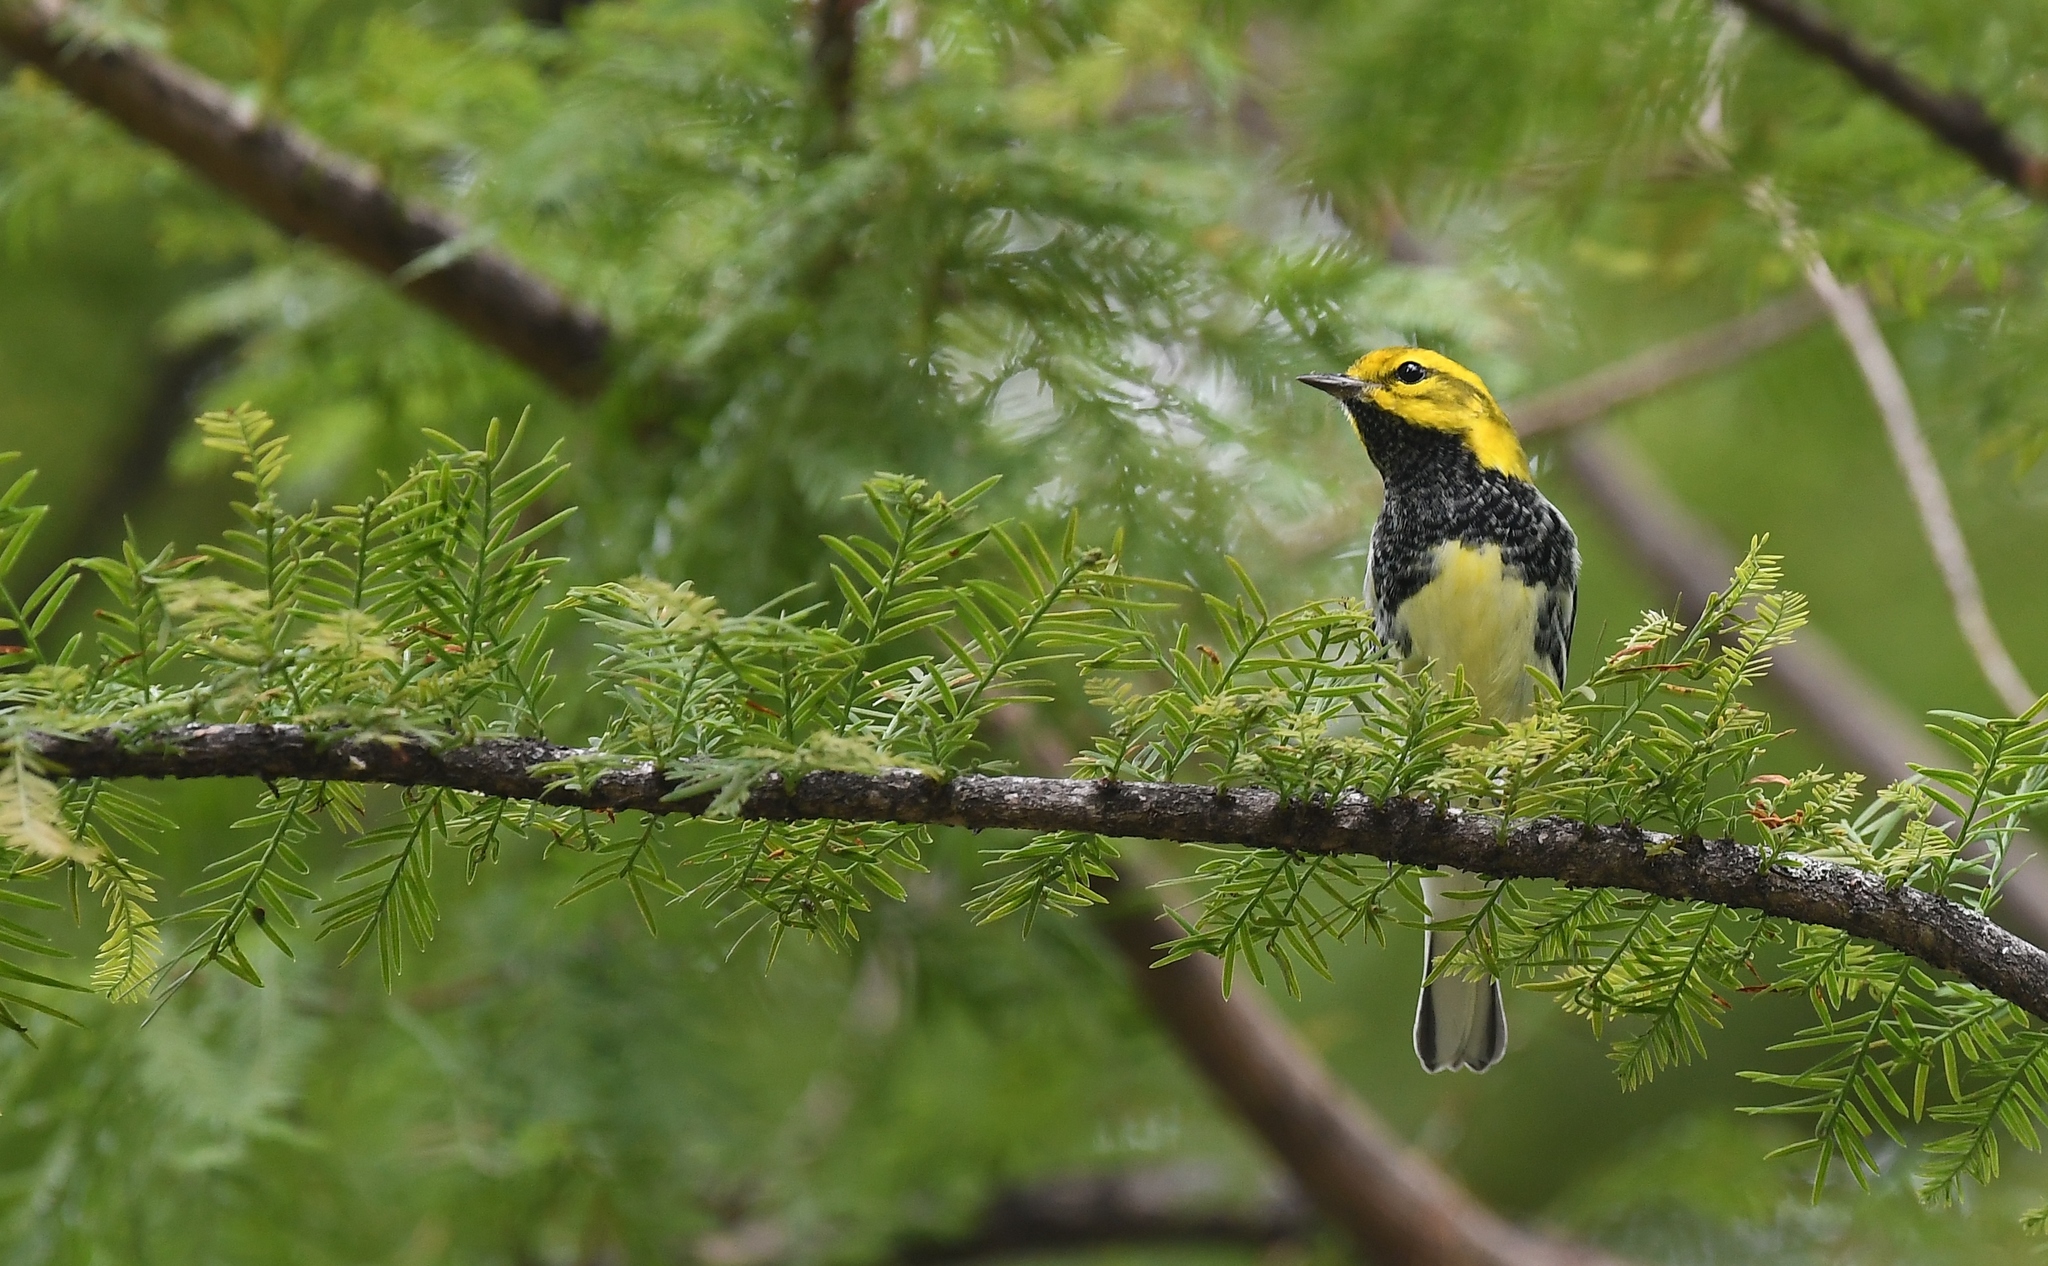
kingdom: Animalia
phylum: Chordata
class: Aves
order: Passeriformes
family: Parulidae
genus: Setophaga
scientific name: Setophaga virens
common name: Black-throated green warbler
